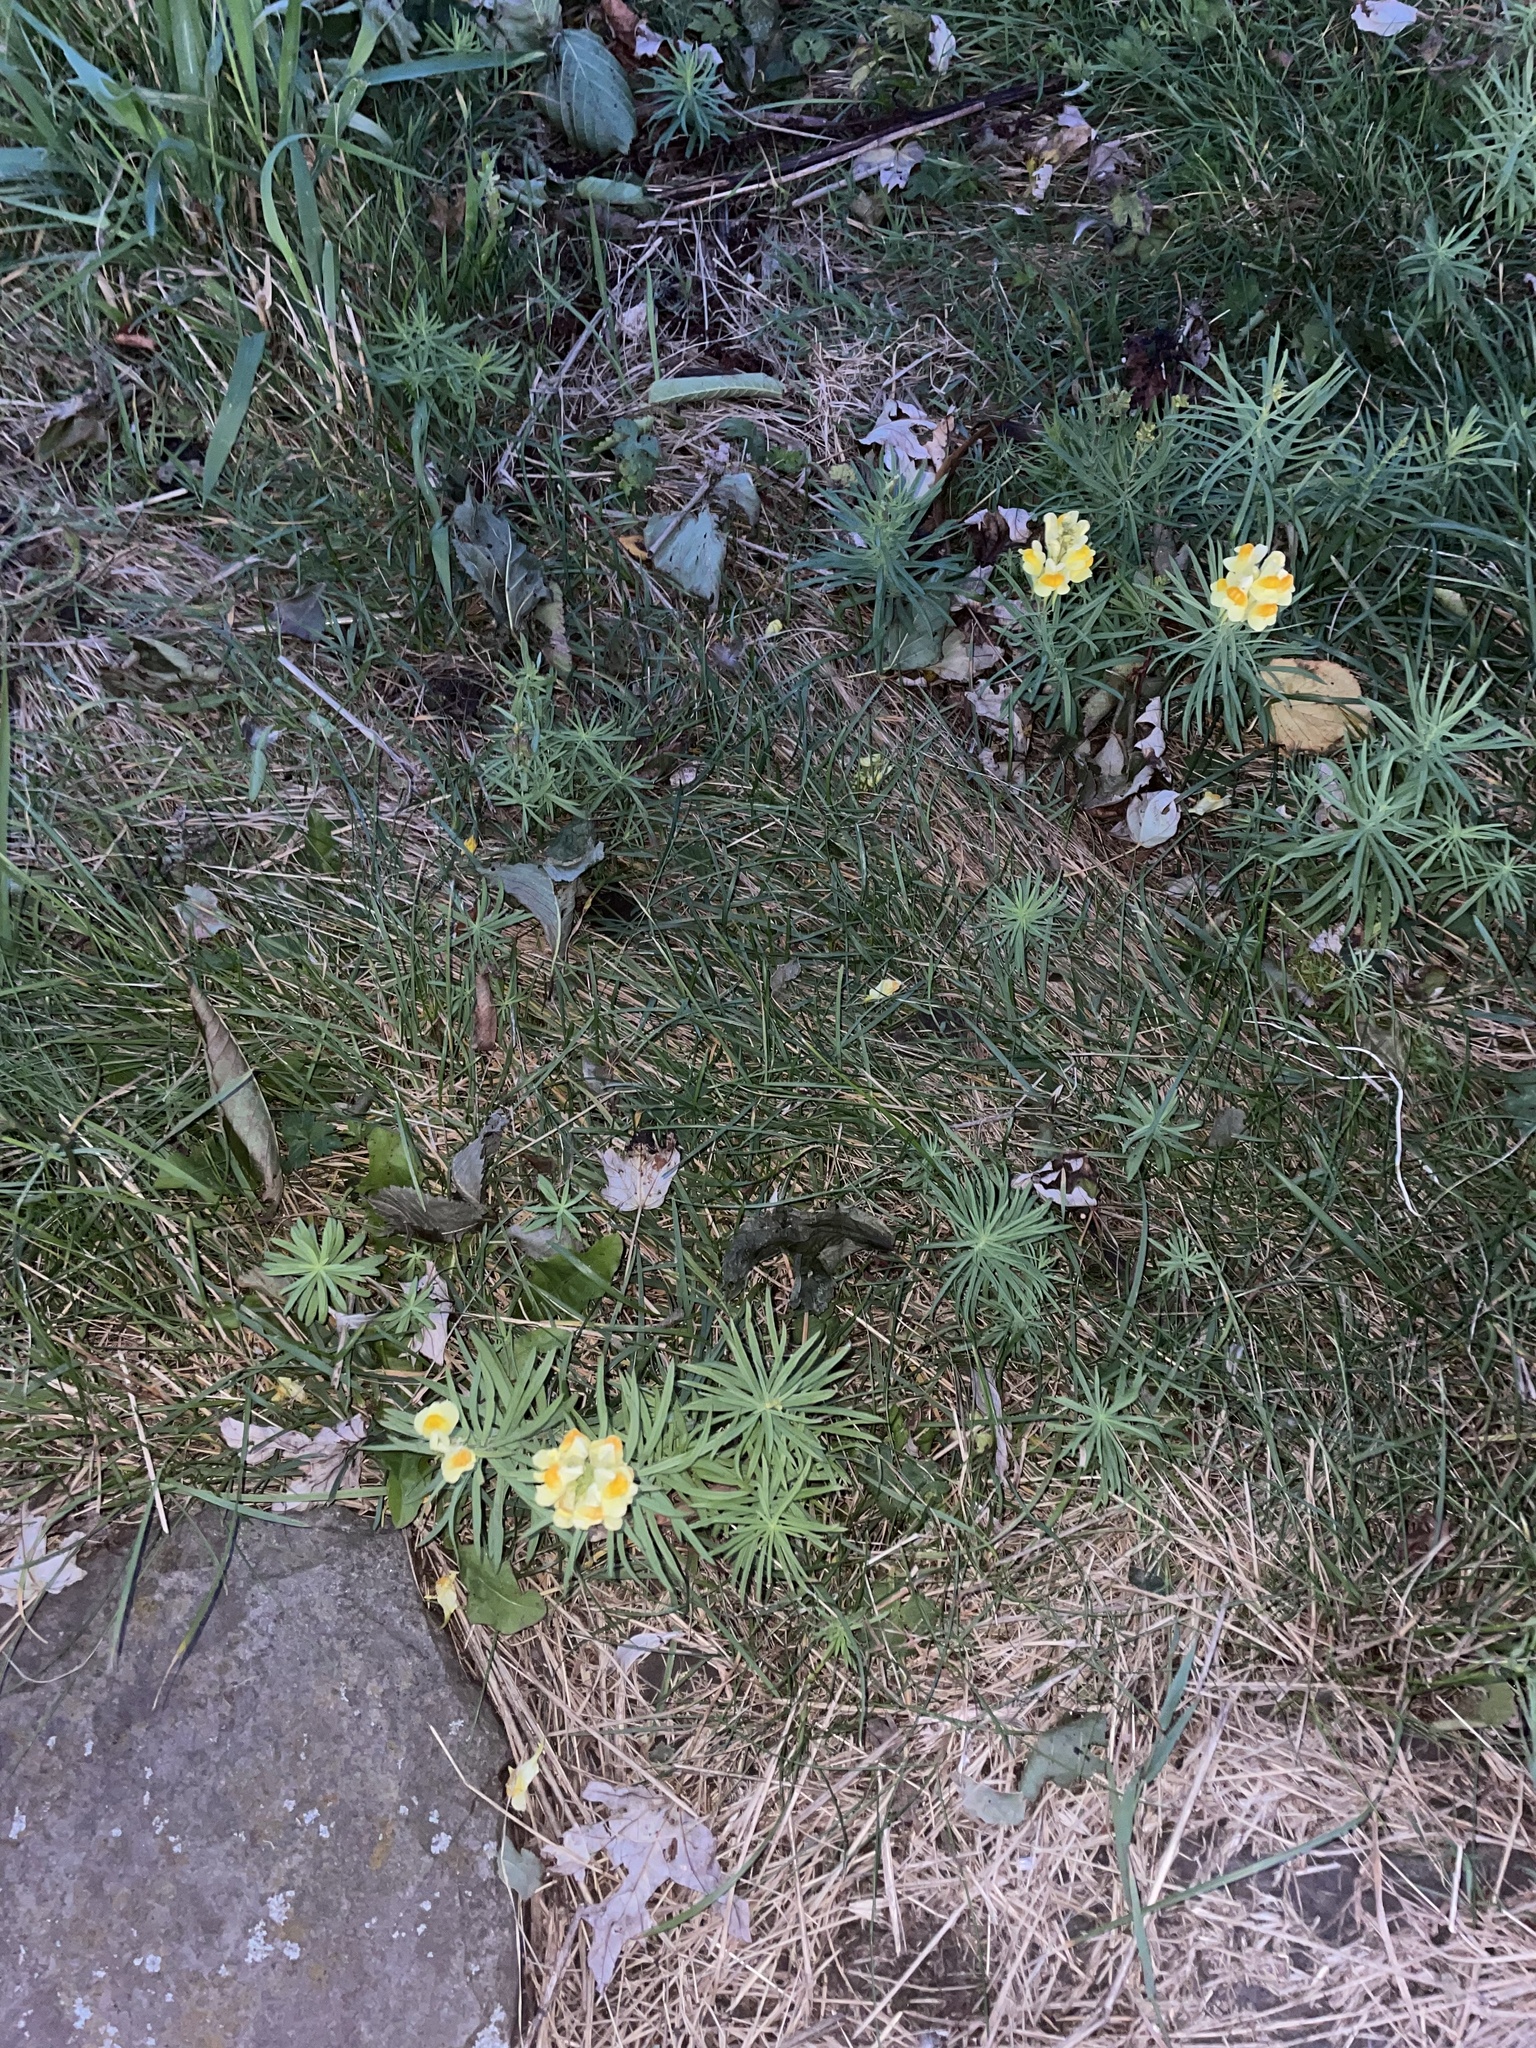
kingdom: Plantae
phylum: Tracheophyta
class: Magnoliopsida
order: Lamiales
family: Plantaginaceae
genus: Linaria
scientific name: Linaria vulgaris
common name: Butter and eggs
